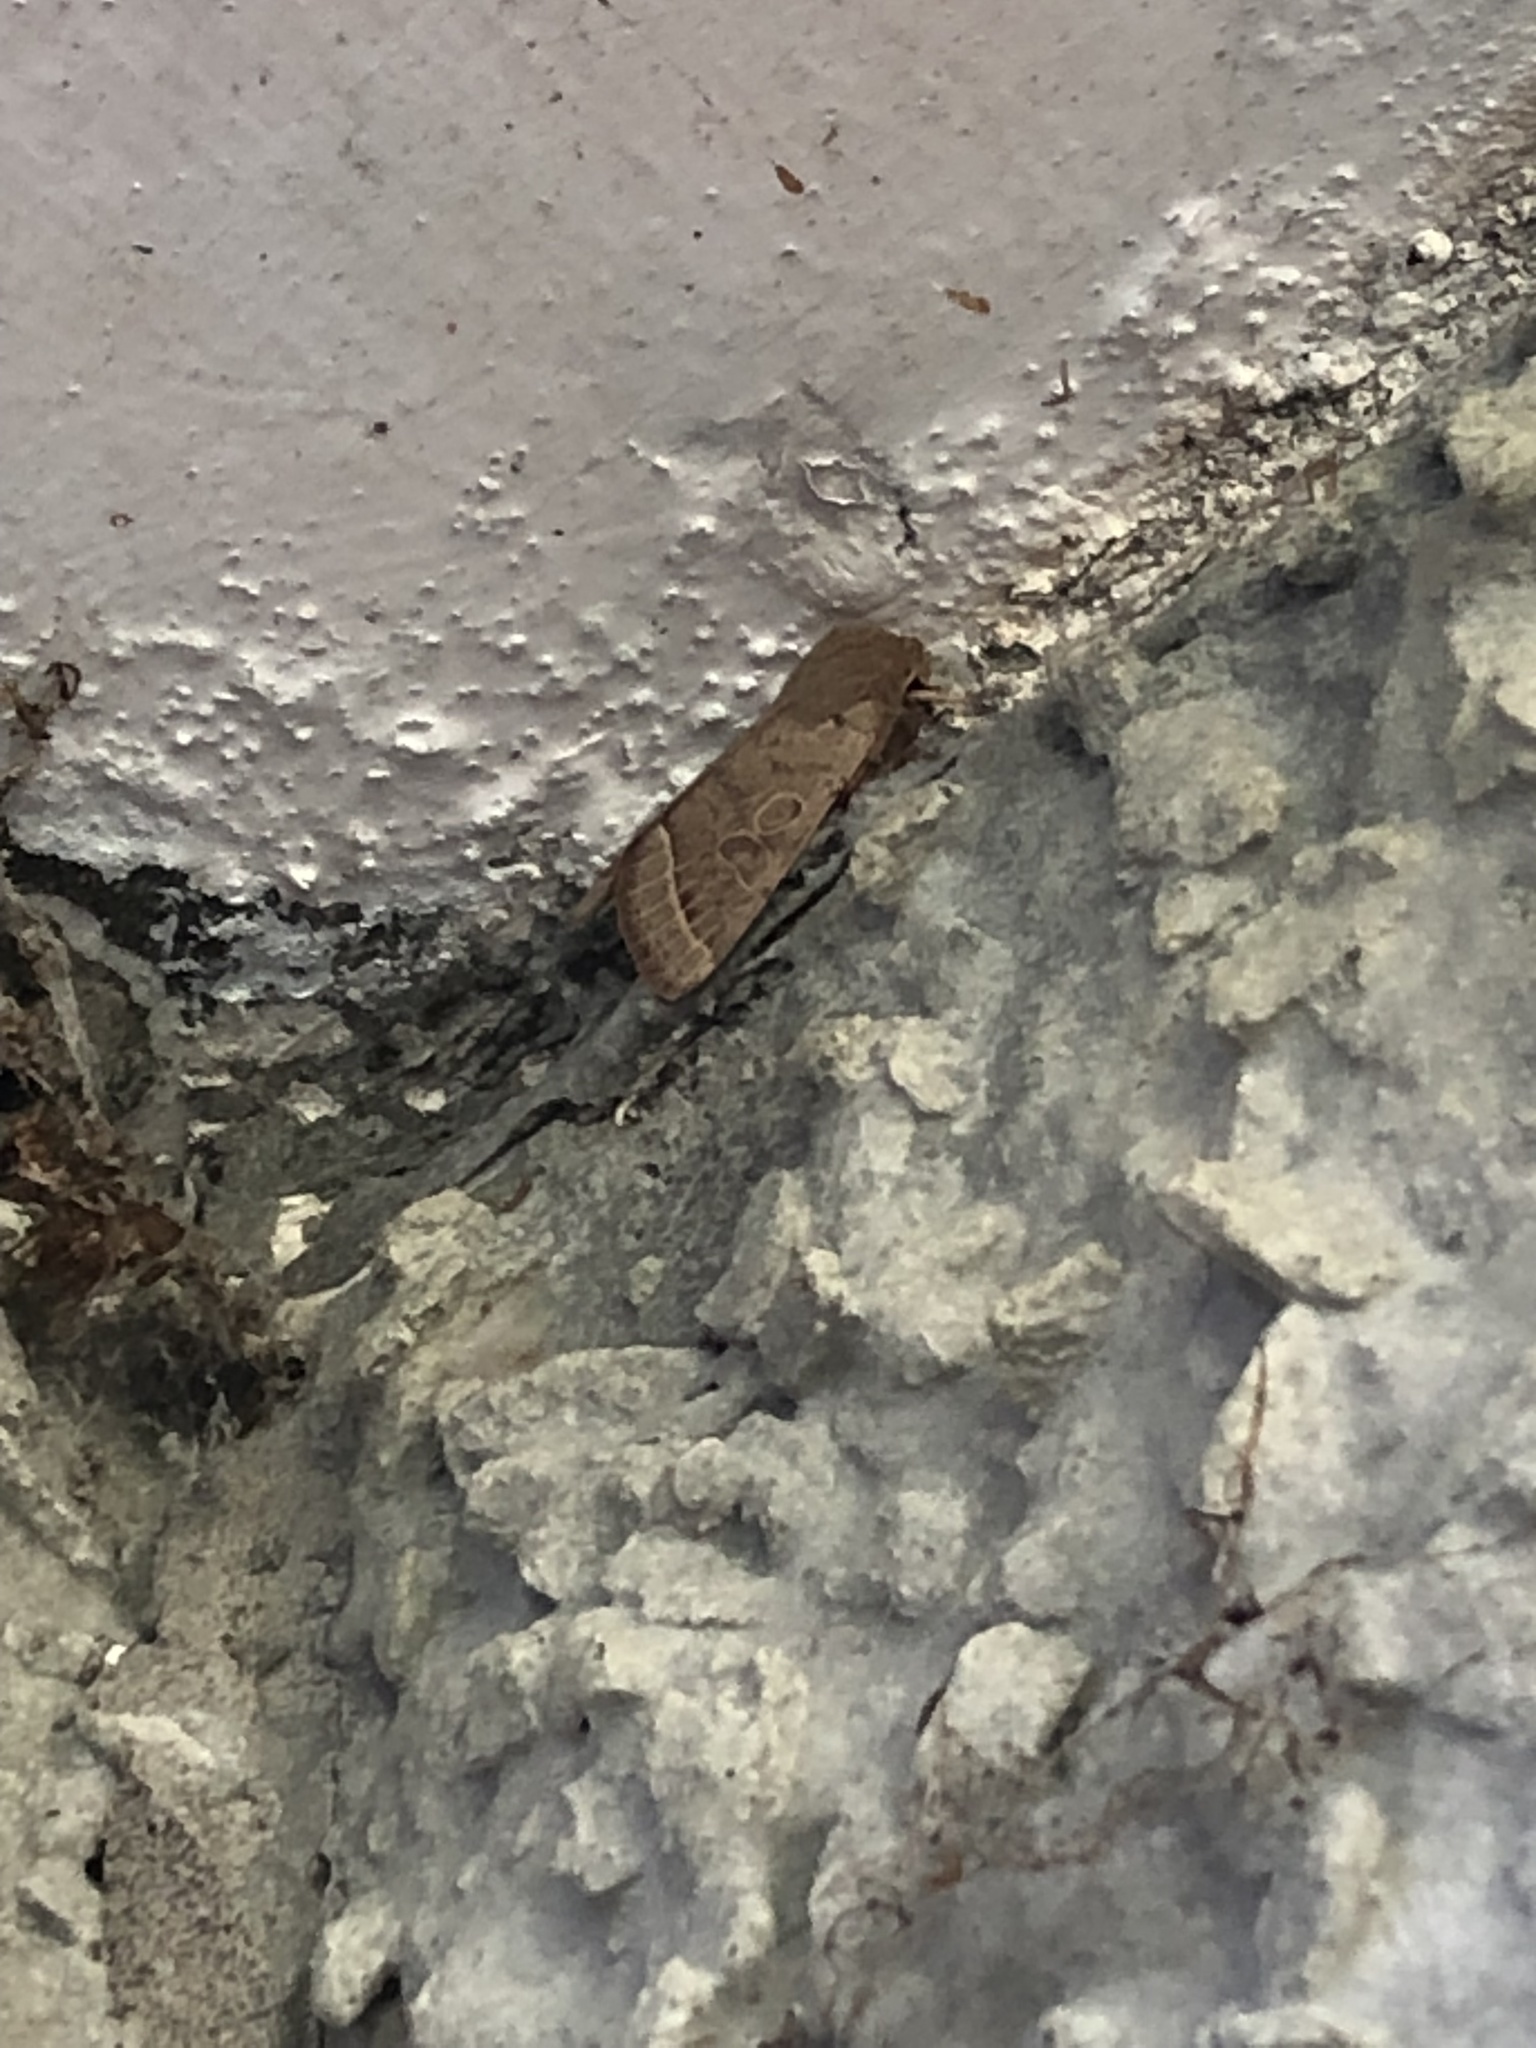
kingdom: Animalia
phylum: Arthropoda
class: Insecta
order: Lepidoptera
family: Noctuidae
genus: Orthosia
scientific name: Orthosia cerasi
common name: Common quaker
